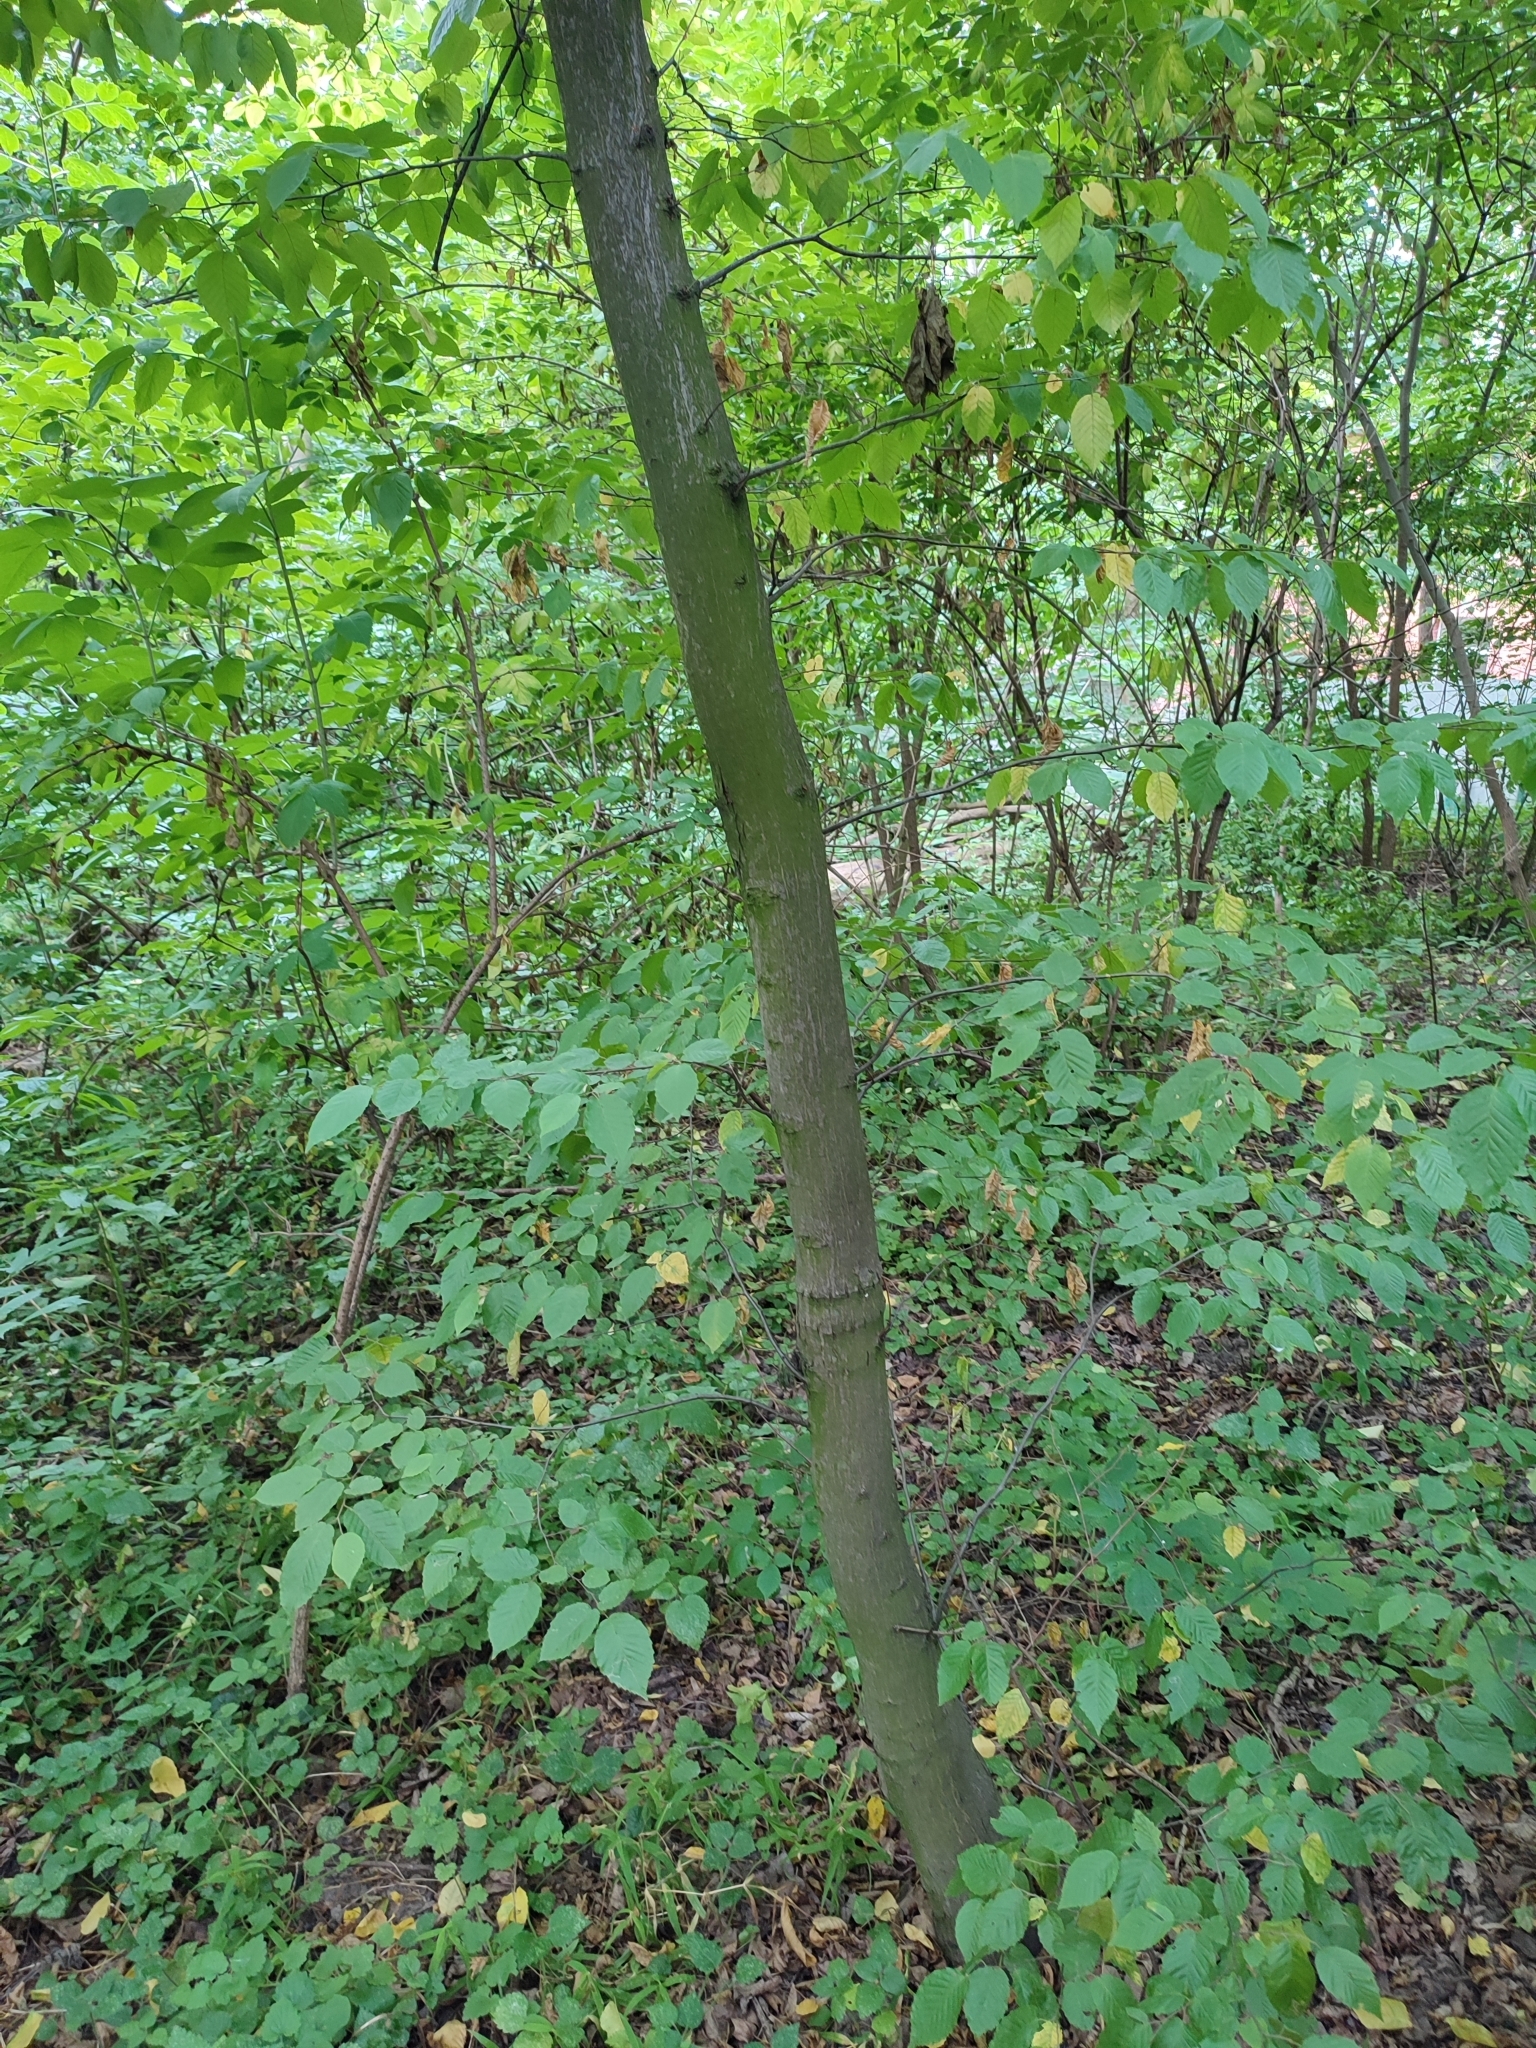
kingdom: Plantae
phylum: Tracheophyta
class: Magnoliopsida
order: Fagales
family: Betulaceae
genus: Carpinus
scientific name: Carpinus betulus
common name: Hornbeam
